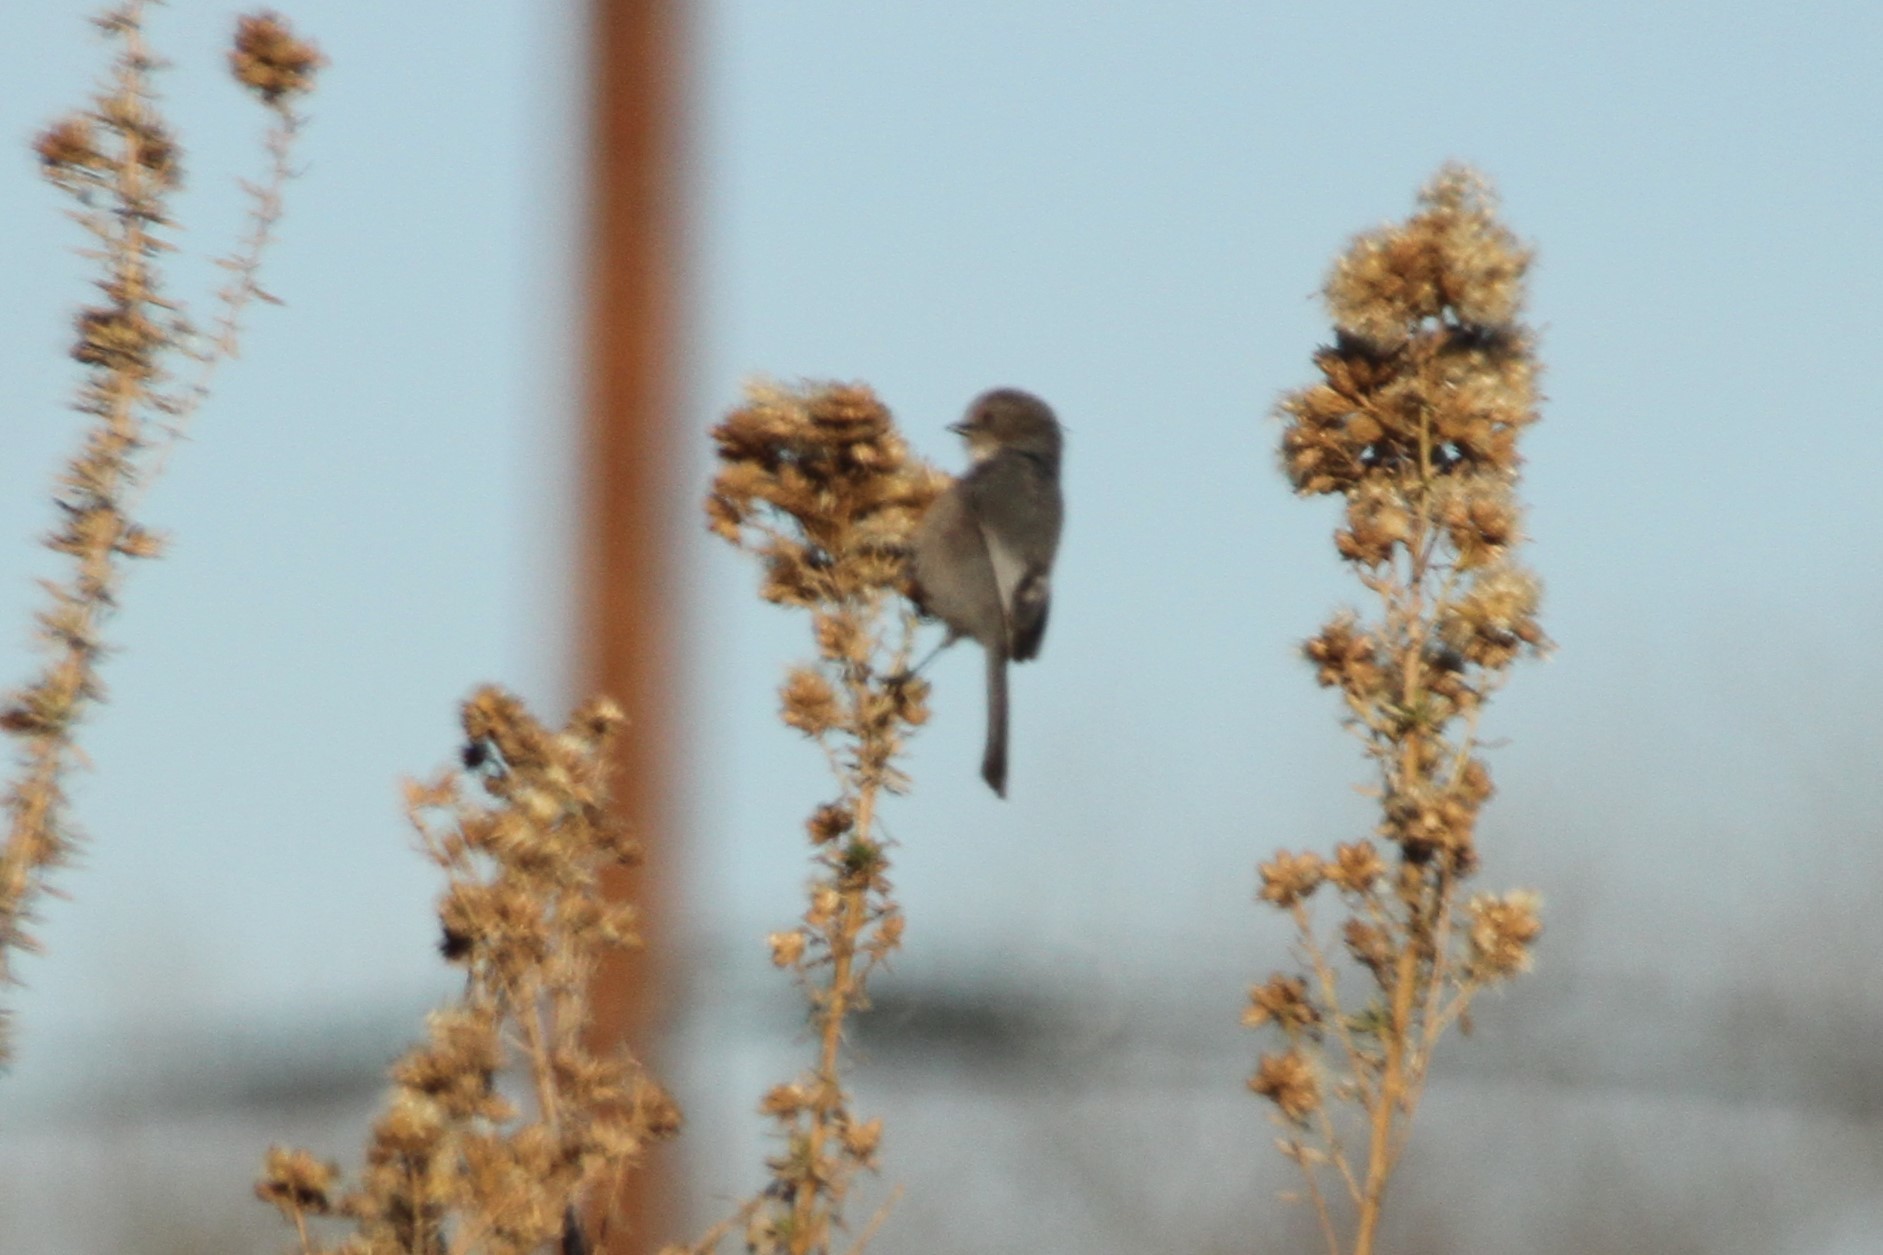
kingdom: Animalia
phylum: Chordata
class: Aves
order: Passeriformes
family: Aegithalidae
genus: Psaltriparus
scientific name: Psaltriparus minimus
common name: American bushtit
